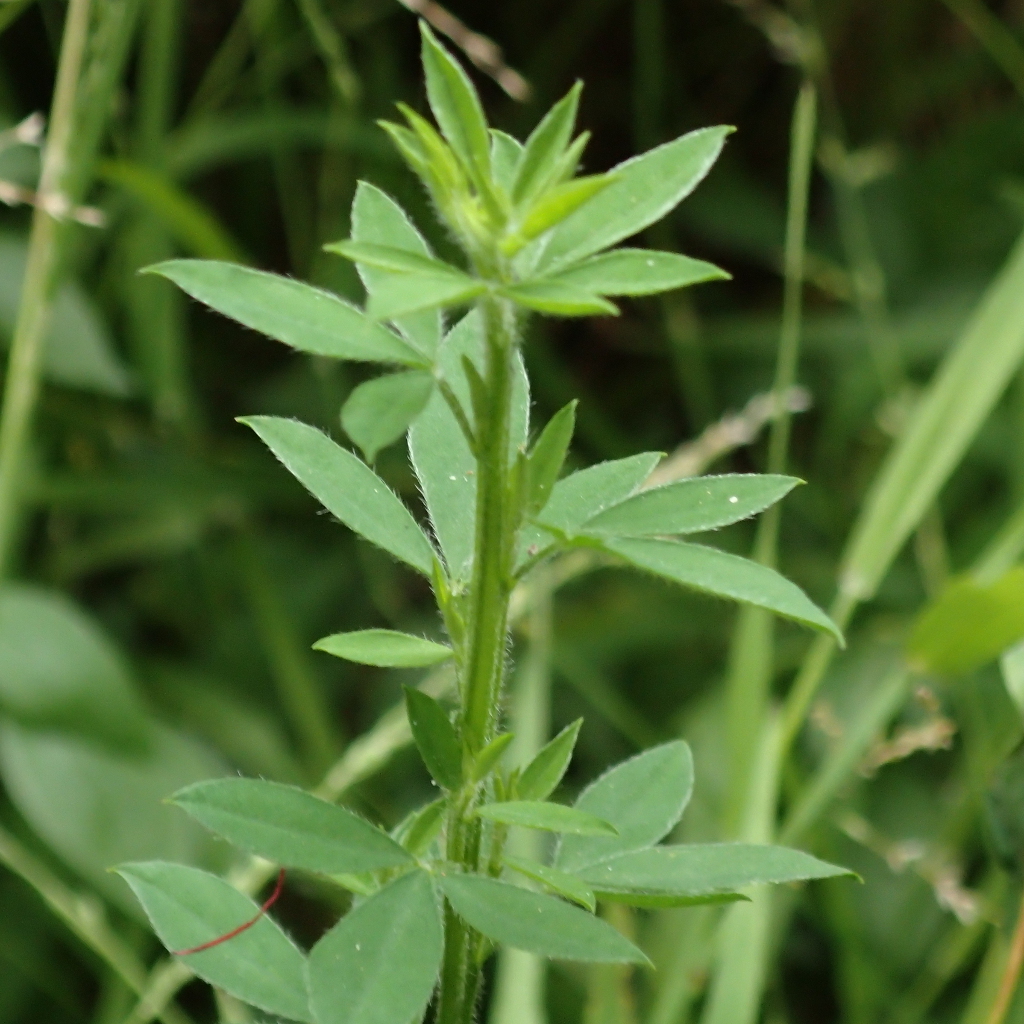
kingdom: Plantae
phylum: Tracheophyta
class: Magnoliopsida
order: Fabales
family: Fabaceae
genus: Chamaecytisus
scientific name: Chamaecytisus prolifer
